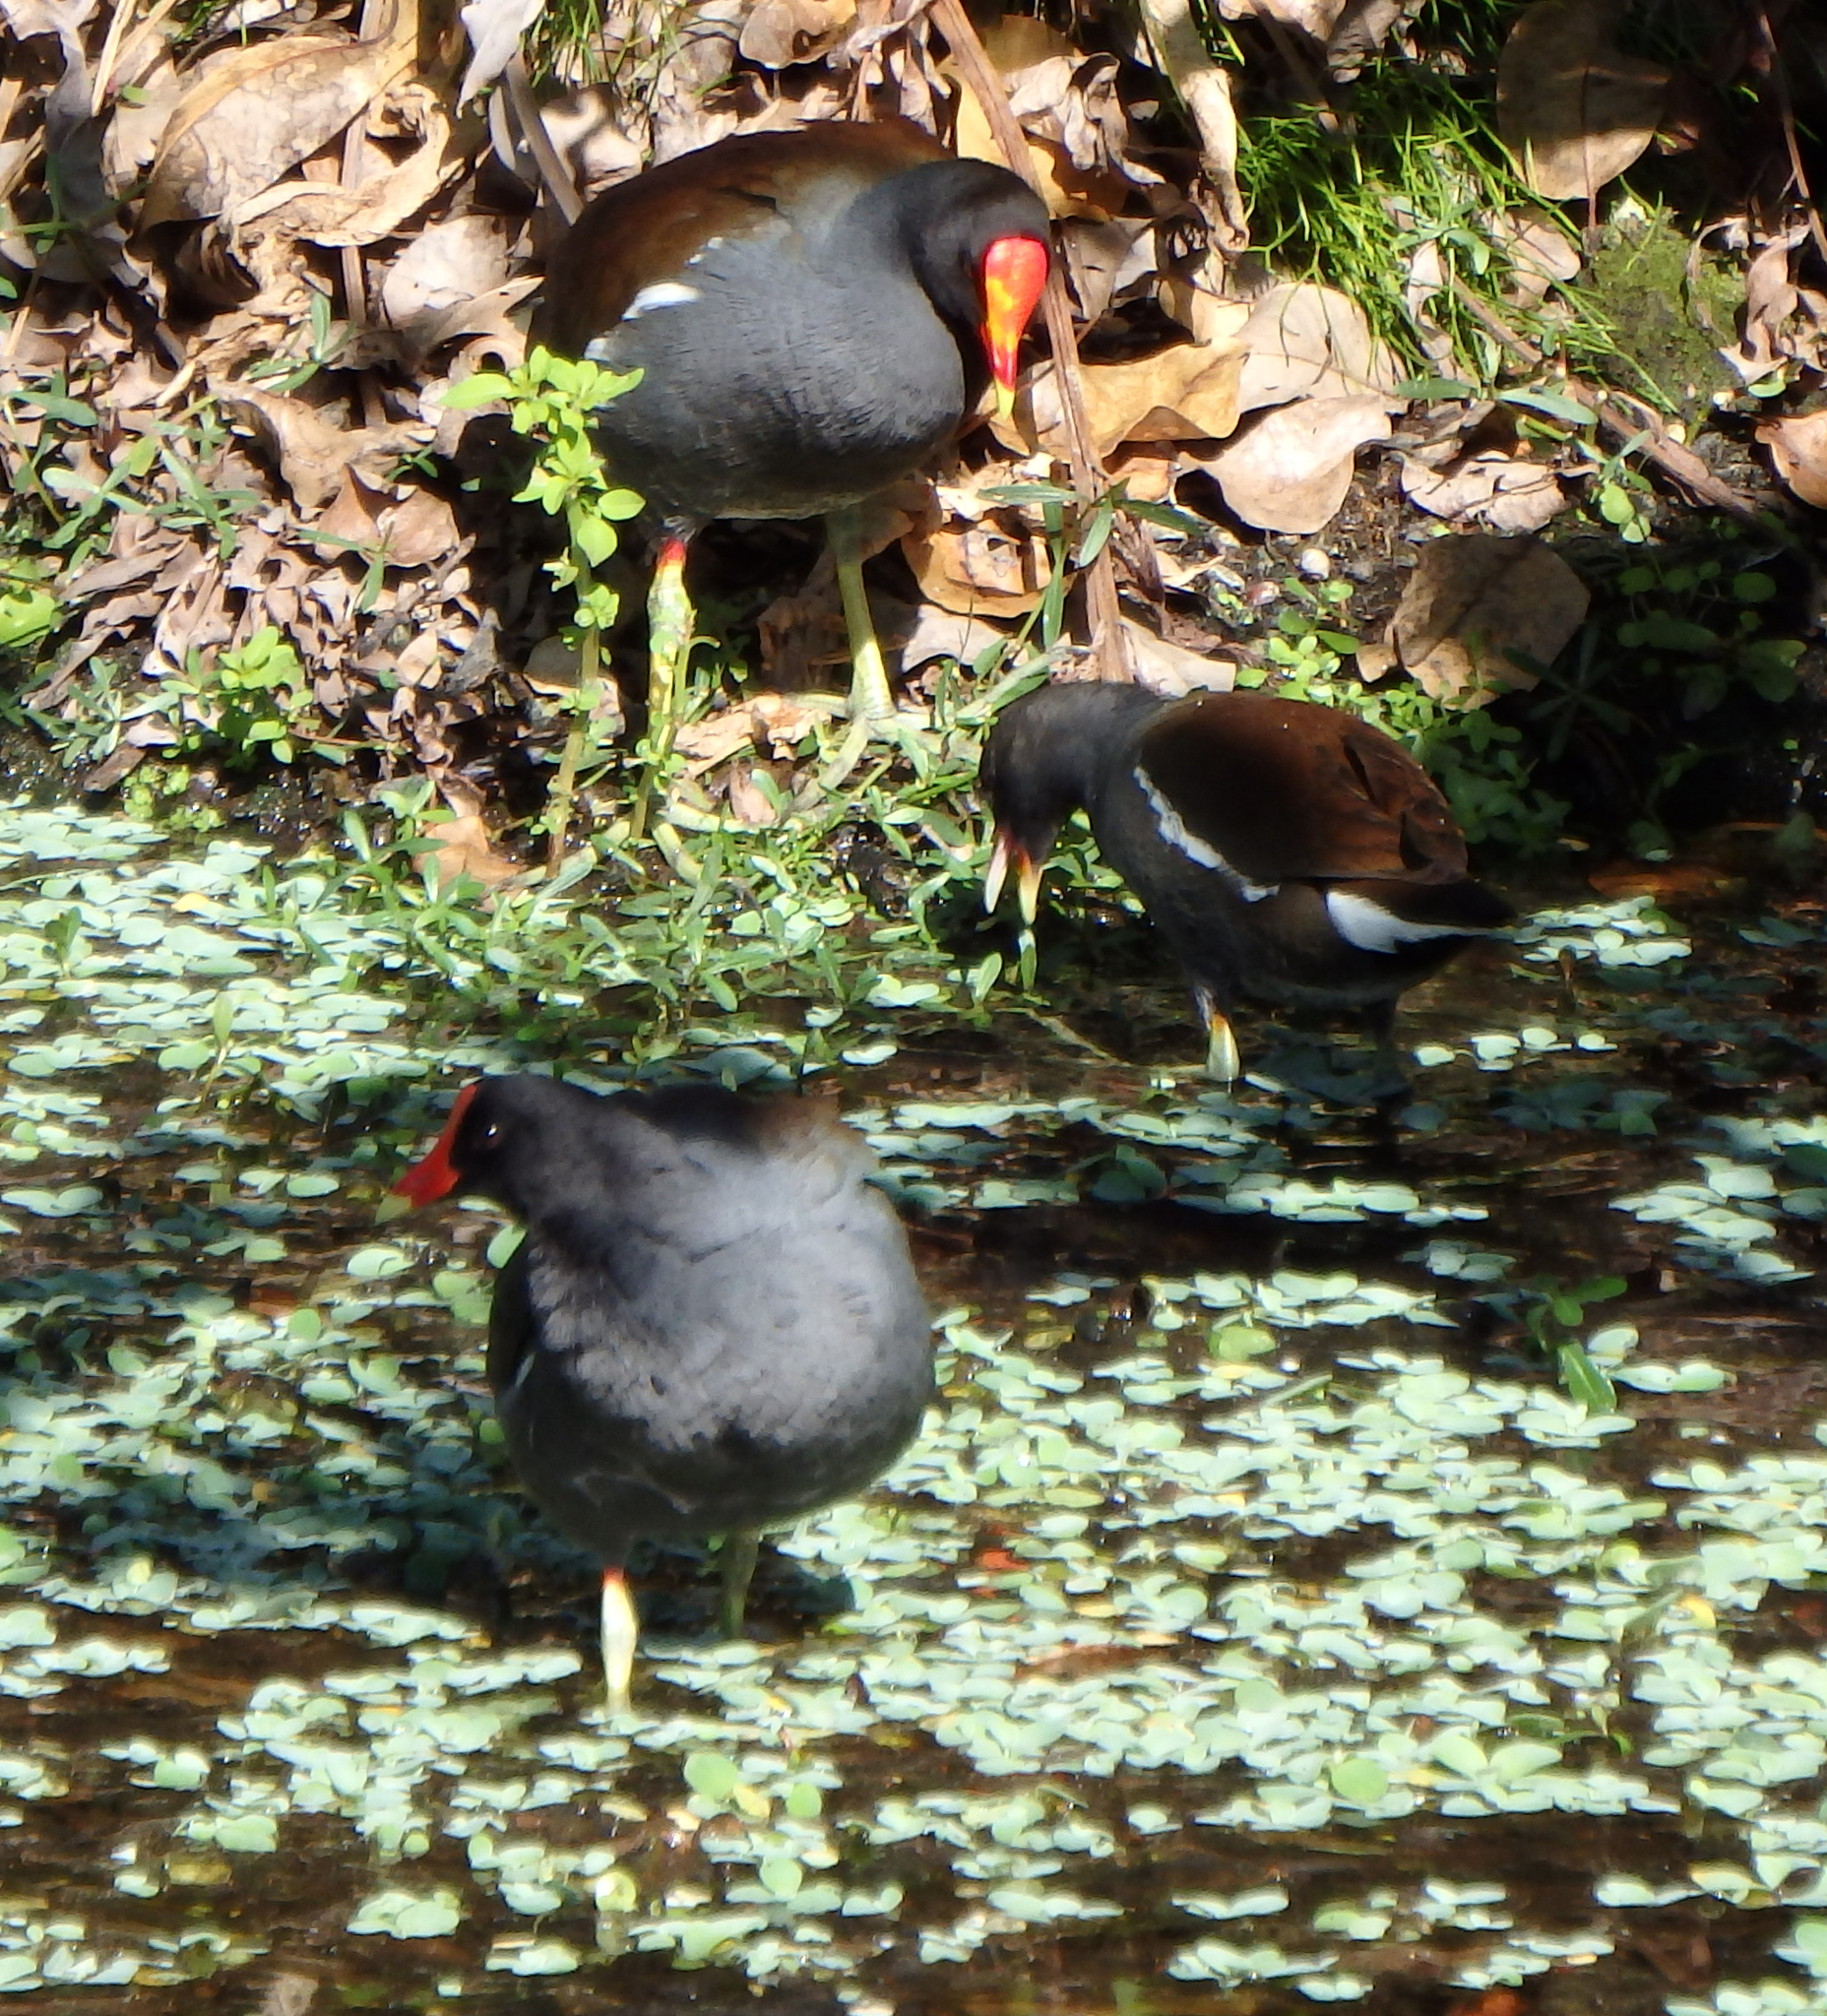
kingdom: Animalia
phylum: Chordata
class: Aves
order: Gruiformes
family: Rallidae
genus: Gallinula
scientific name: Gallinula chloropus
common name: Common moorhen
